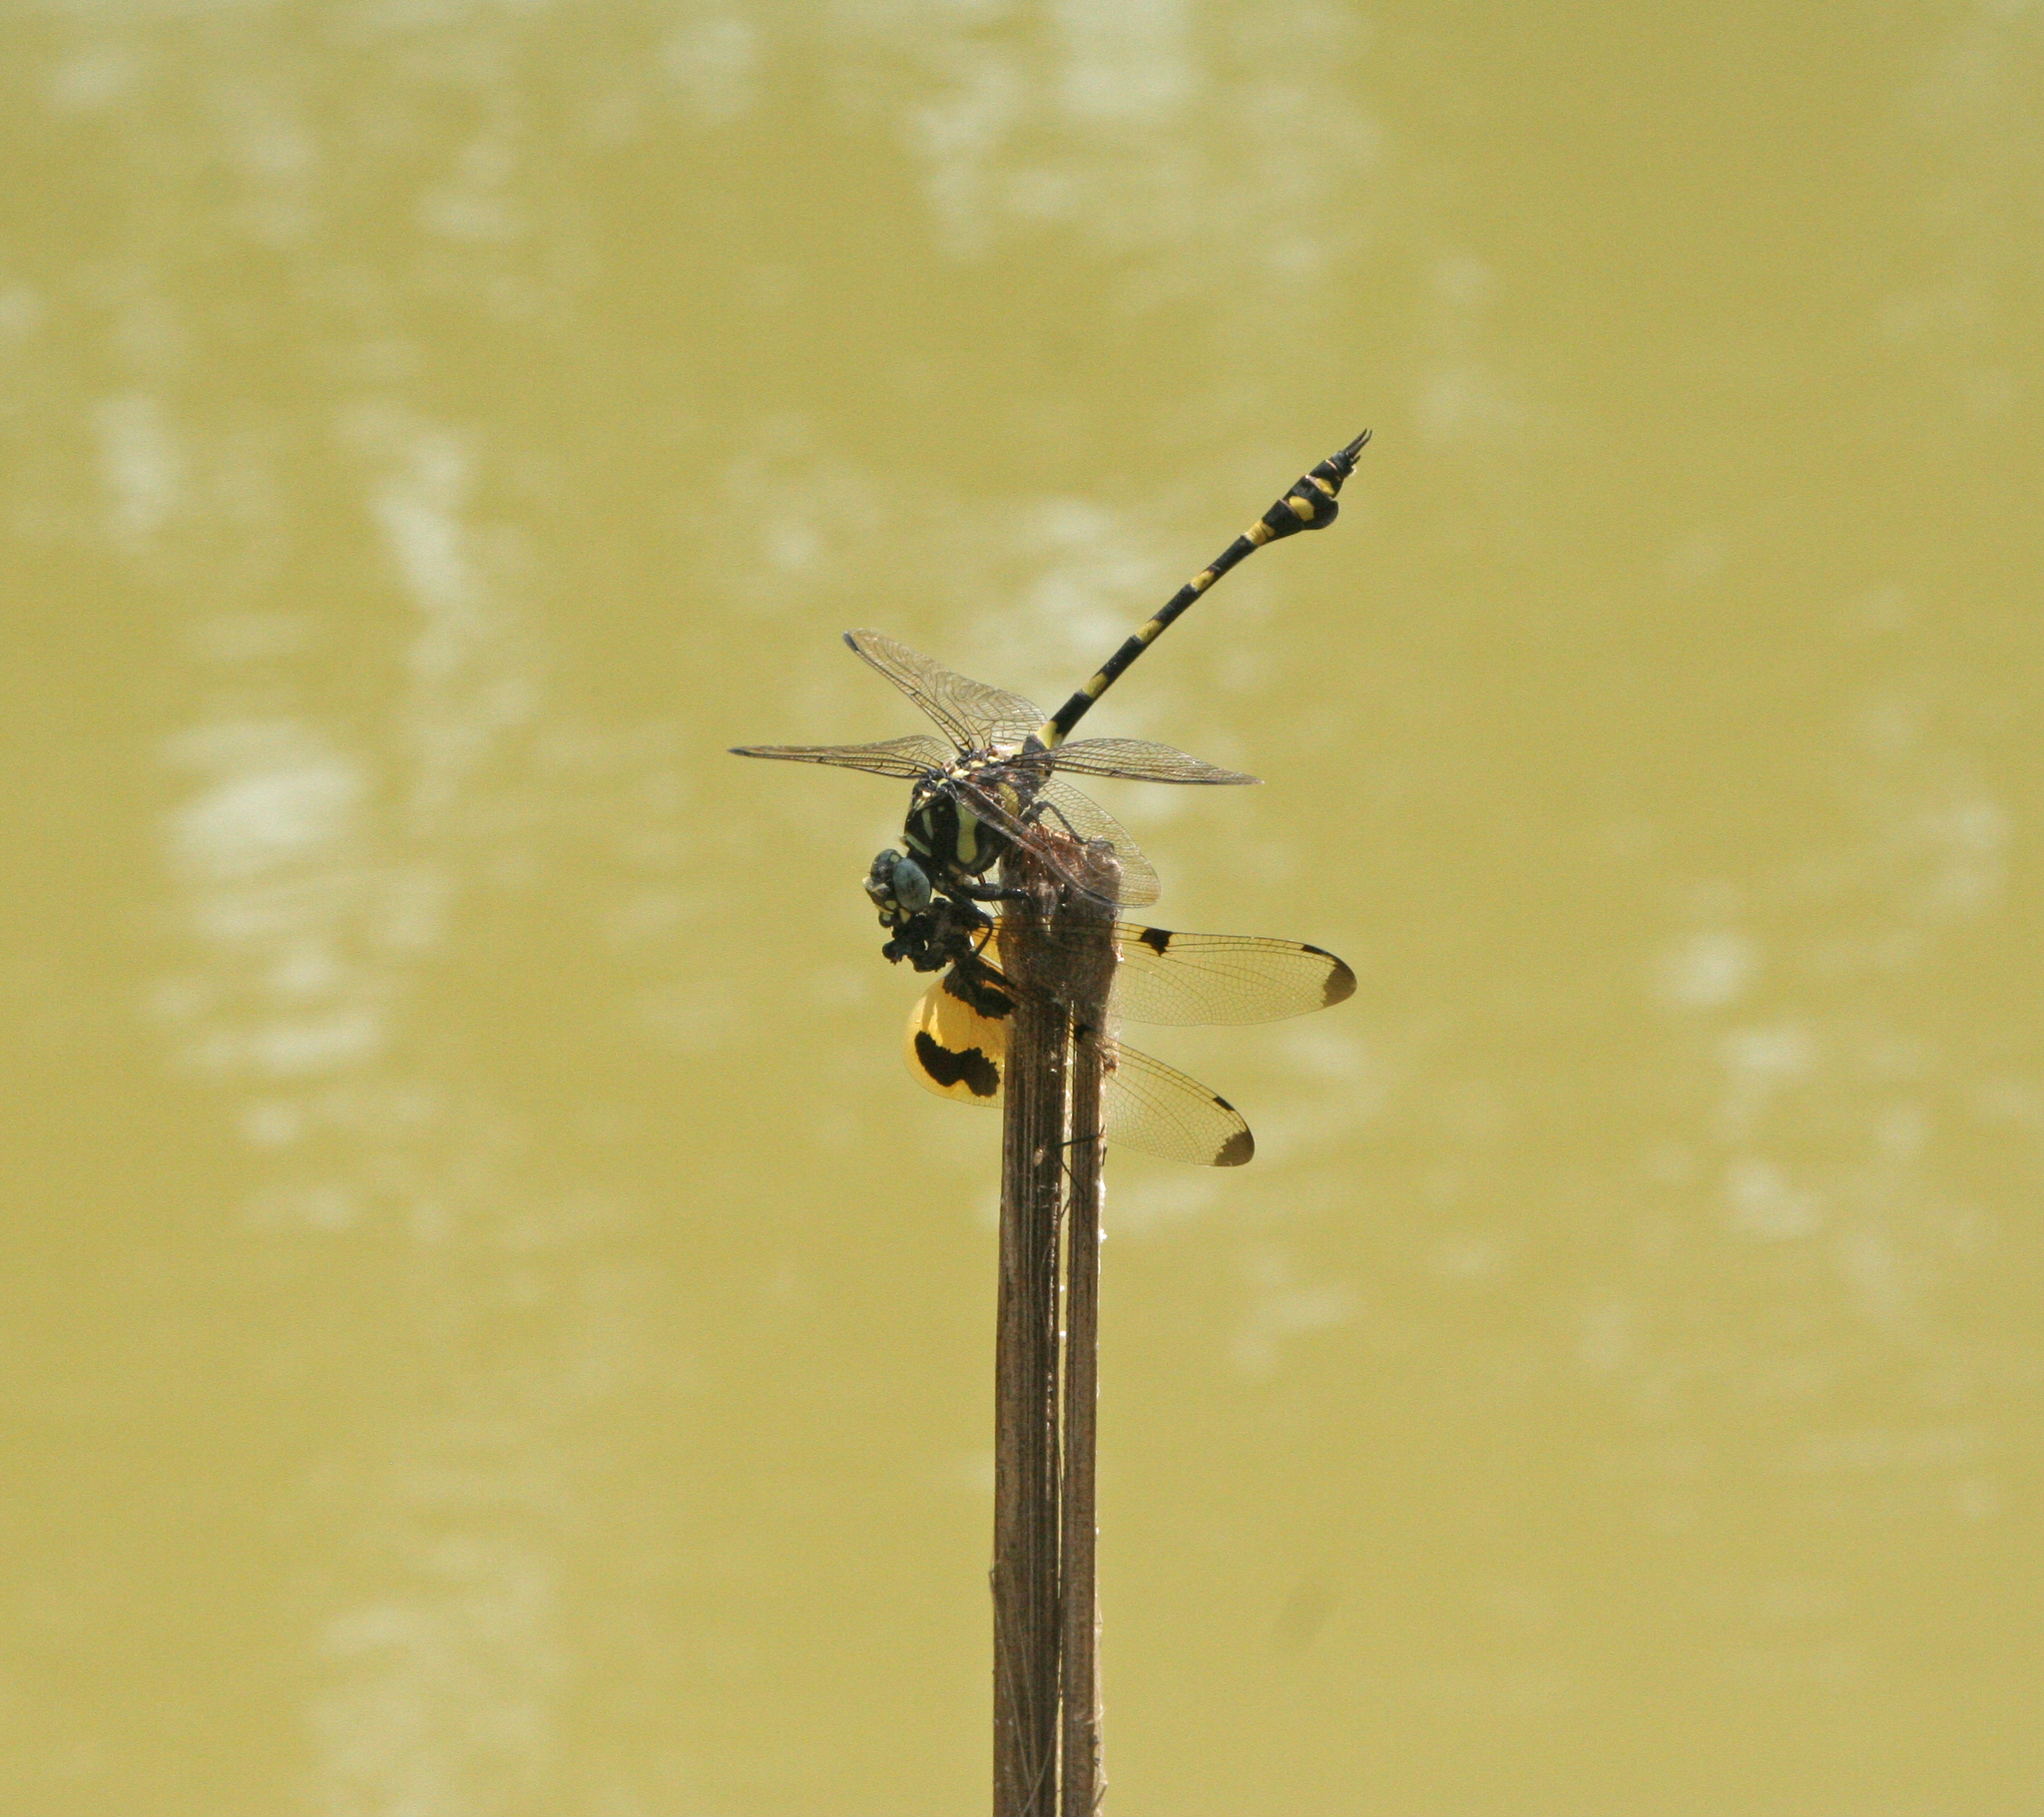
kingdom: Animalia
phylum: Arthropoda
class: Insecta
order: Odonata
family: Gomphidae
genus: Ictinogomphus
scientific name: Ictinogomphus decoratus
